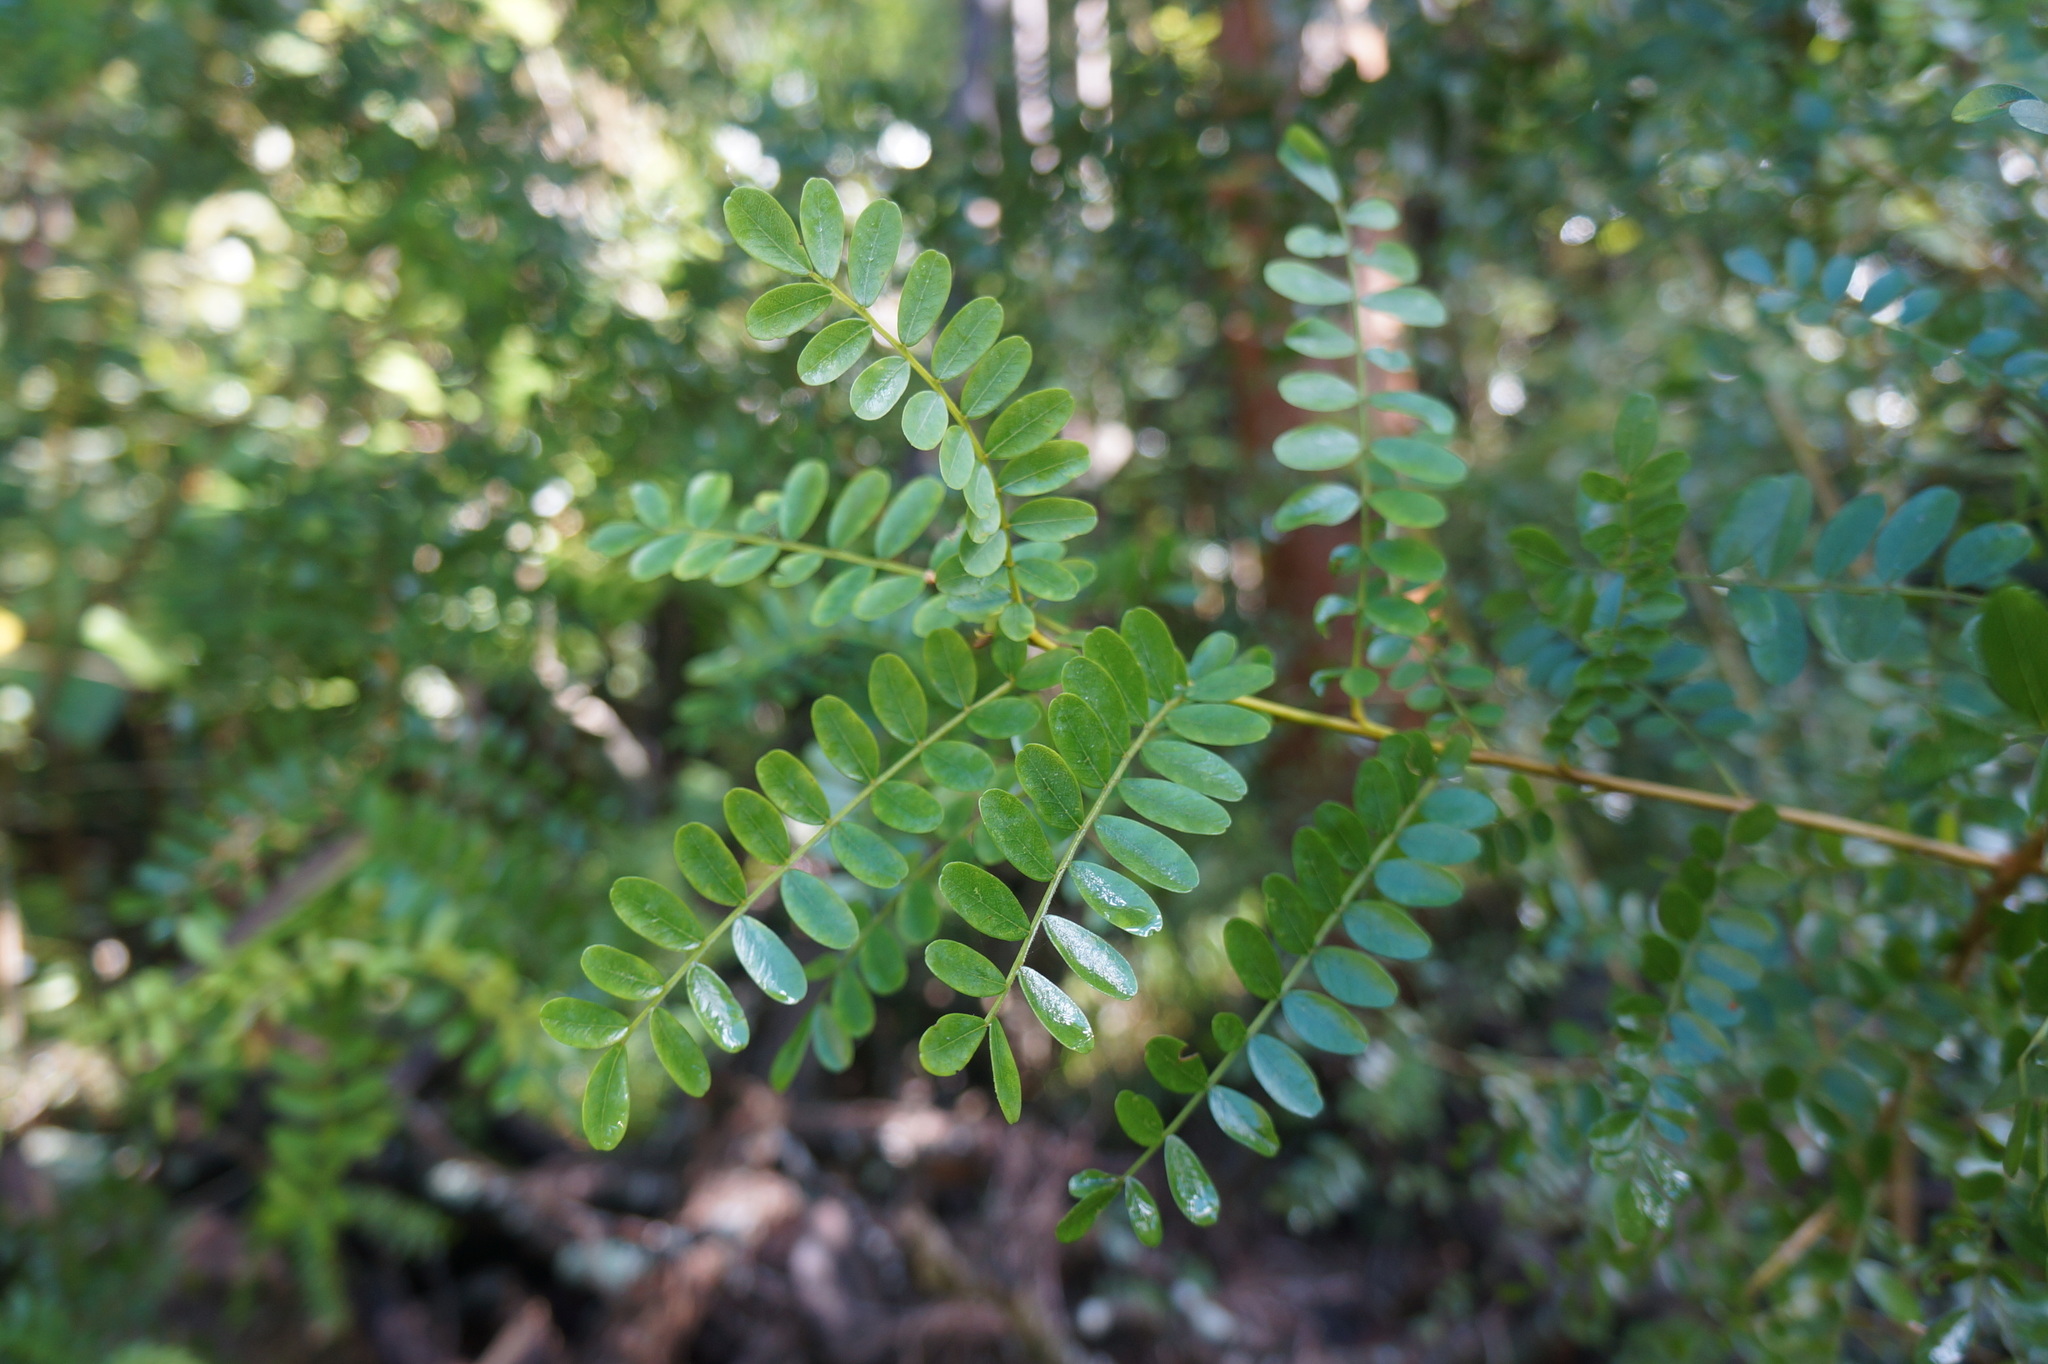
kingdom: Plantae
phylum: Tracheophyta
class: Magnoliopsida
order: Fabales
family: Fabaceae
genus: Acacia
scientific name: Acacia koa
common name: Gray koa
